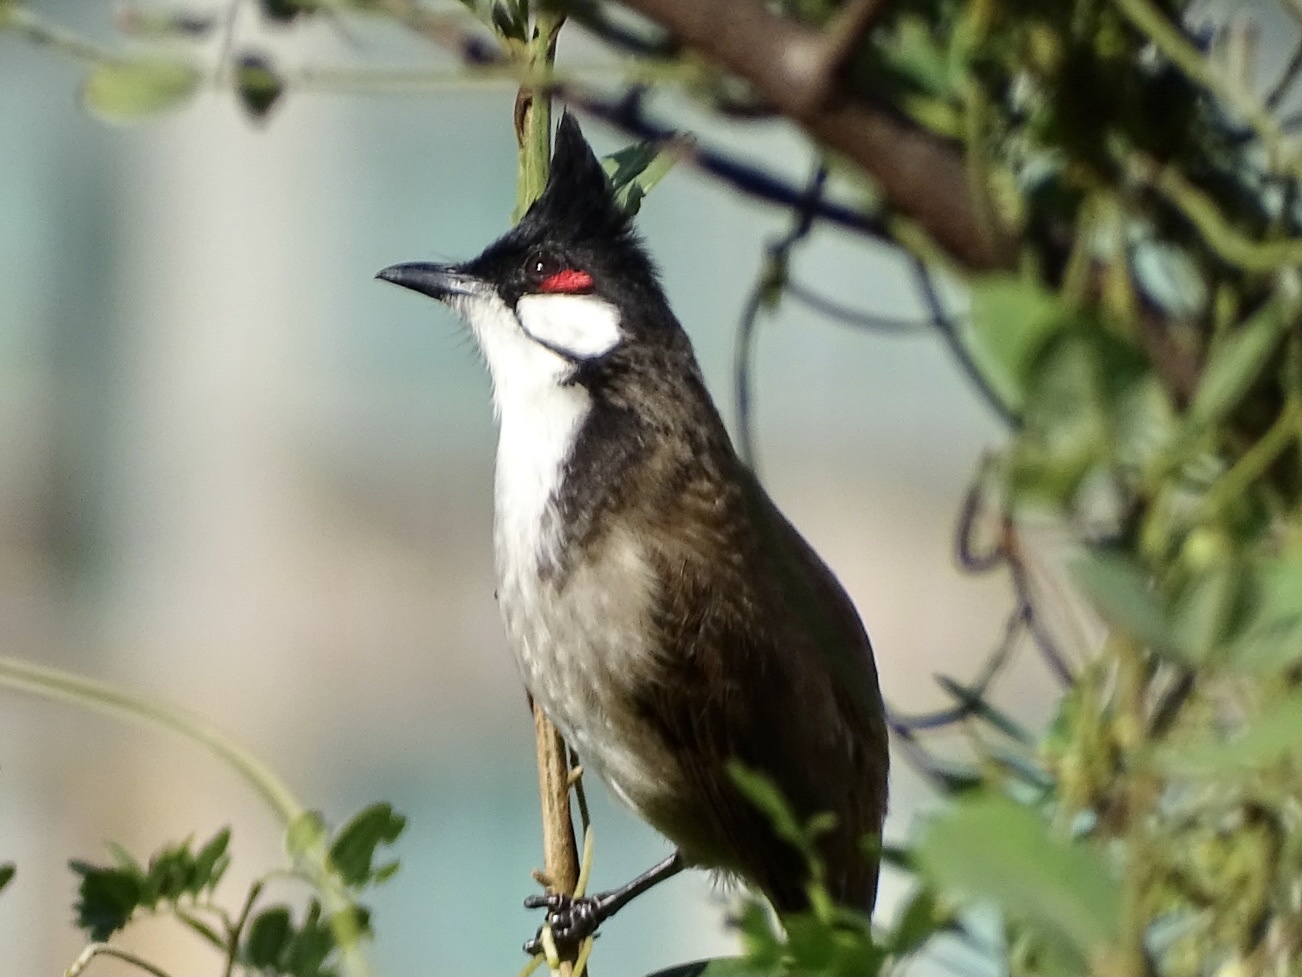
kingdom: Animalia
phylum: Chordata
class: Aves
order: Passeriformes
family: Pycnonotidae
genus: Pycnonotus
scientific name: Pycnonotus jocosus
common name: Red-whiskered bulbul
